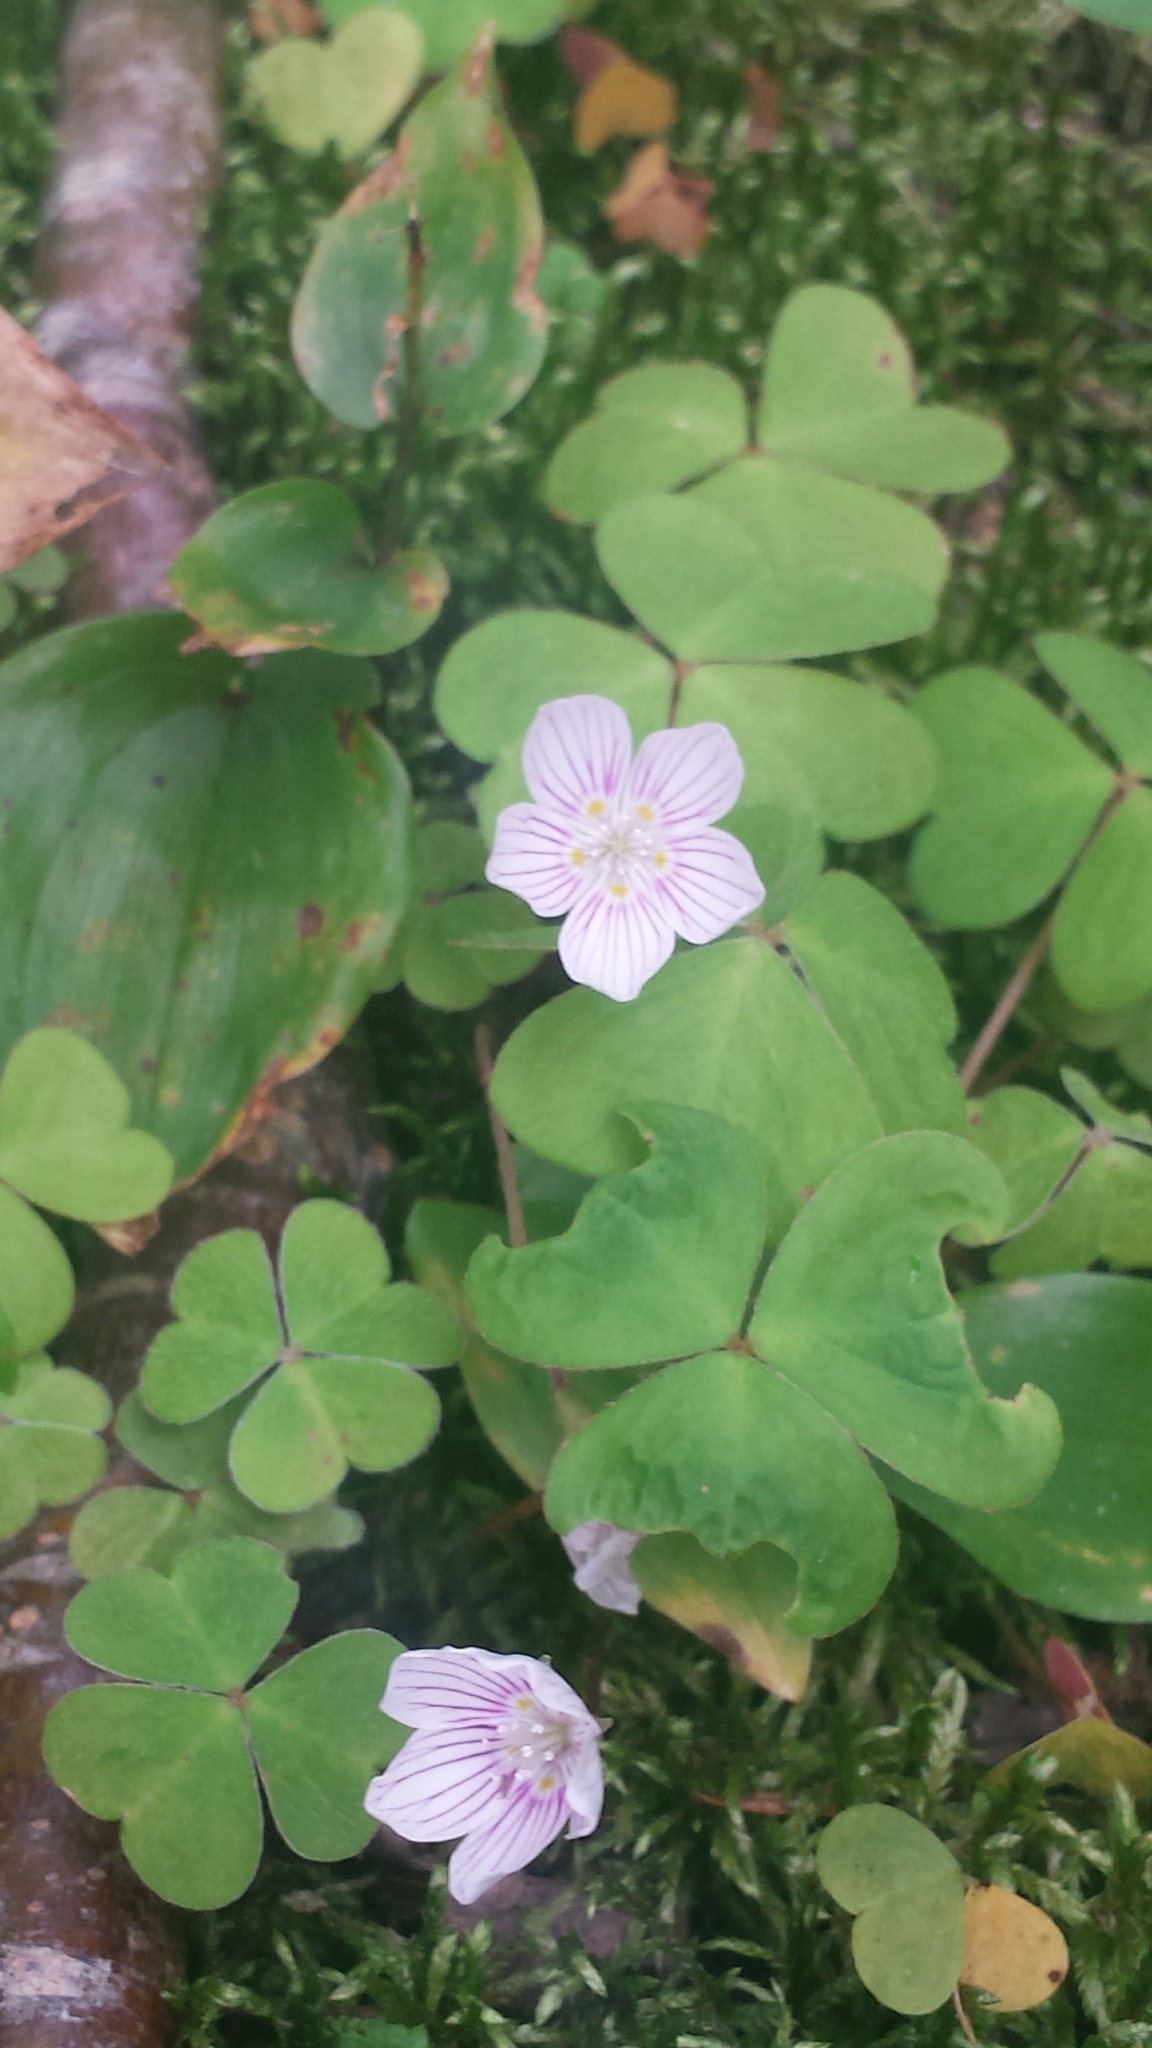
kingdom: Plantae
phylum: Tracheophyta
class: Magnoliopsida
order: Oxalidales
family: Oxalidaceae
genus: Oxalis
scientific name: Oxalis montana
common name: American wood-sorrel
